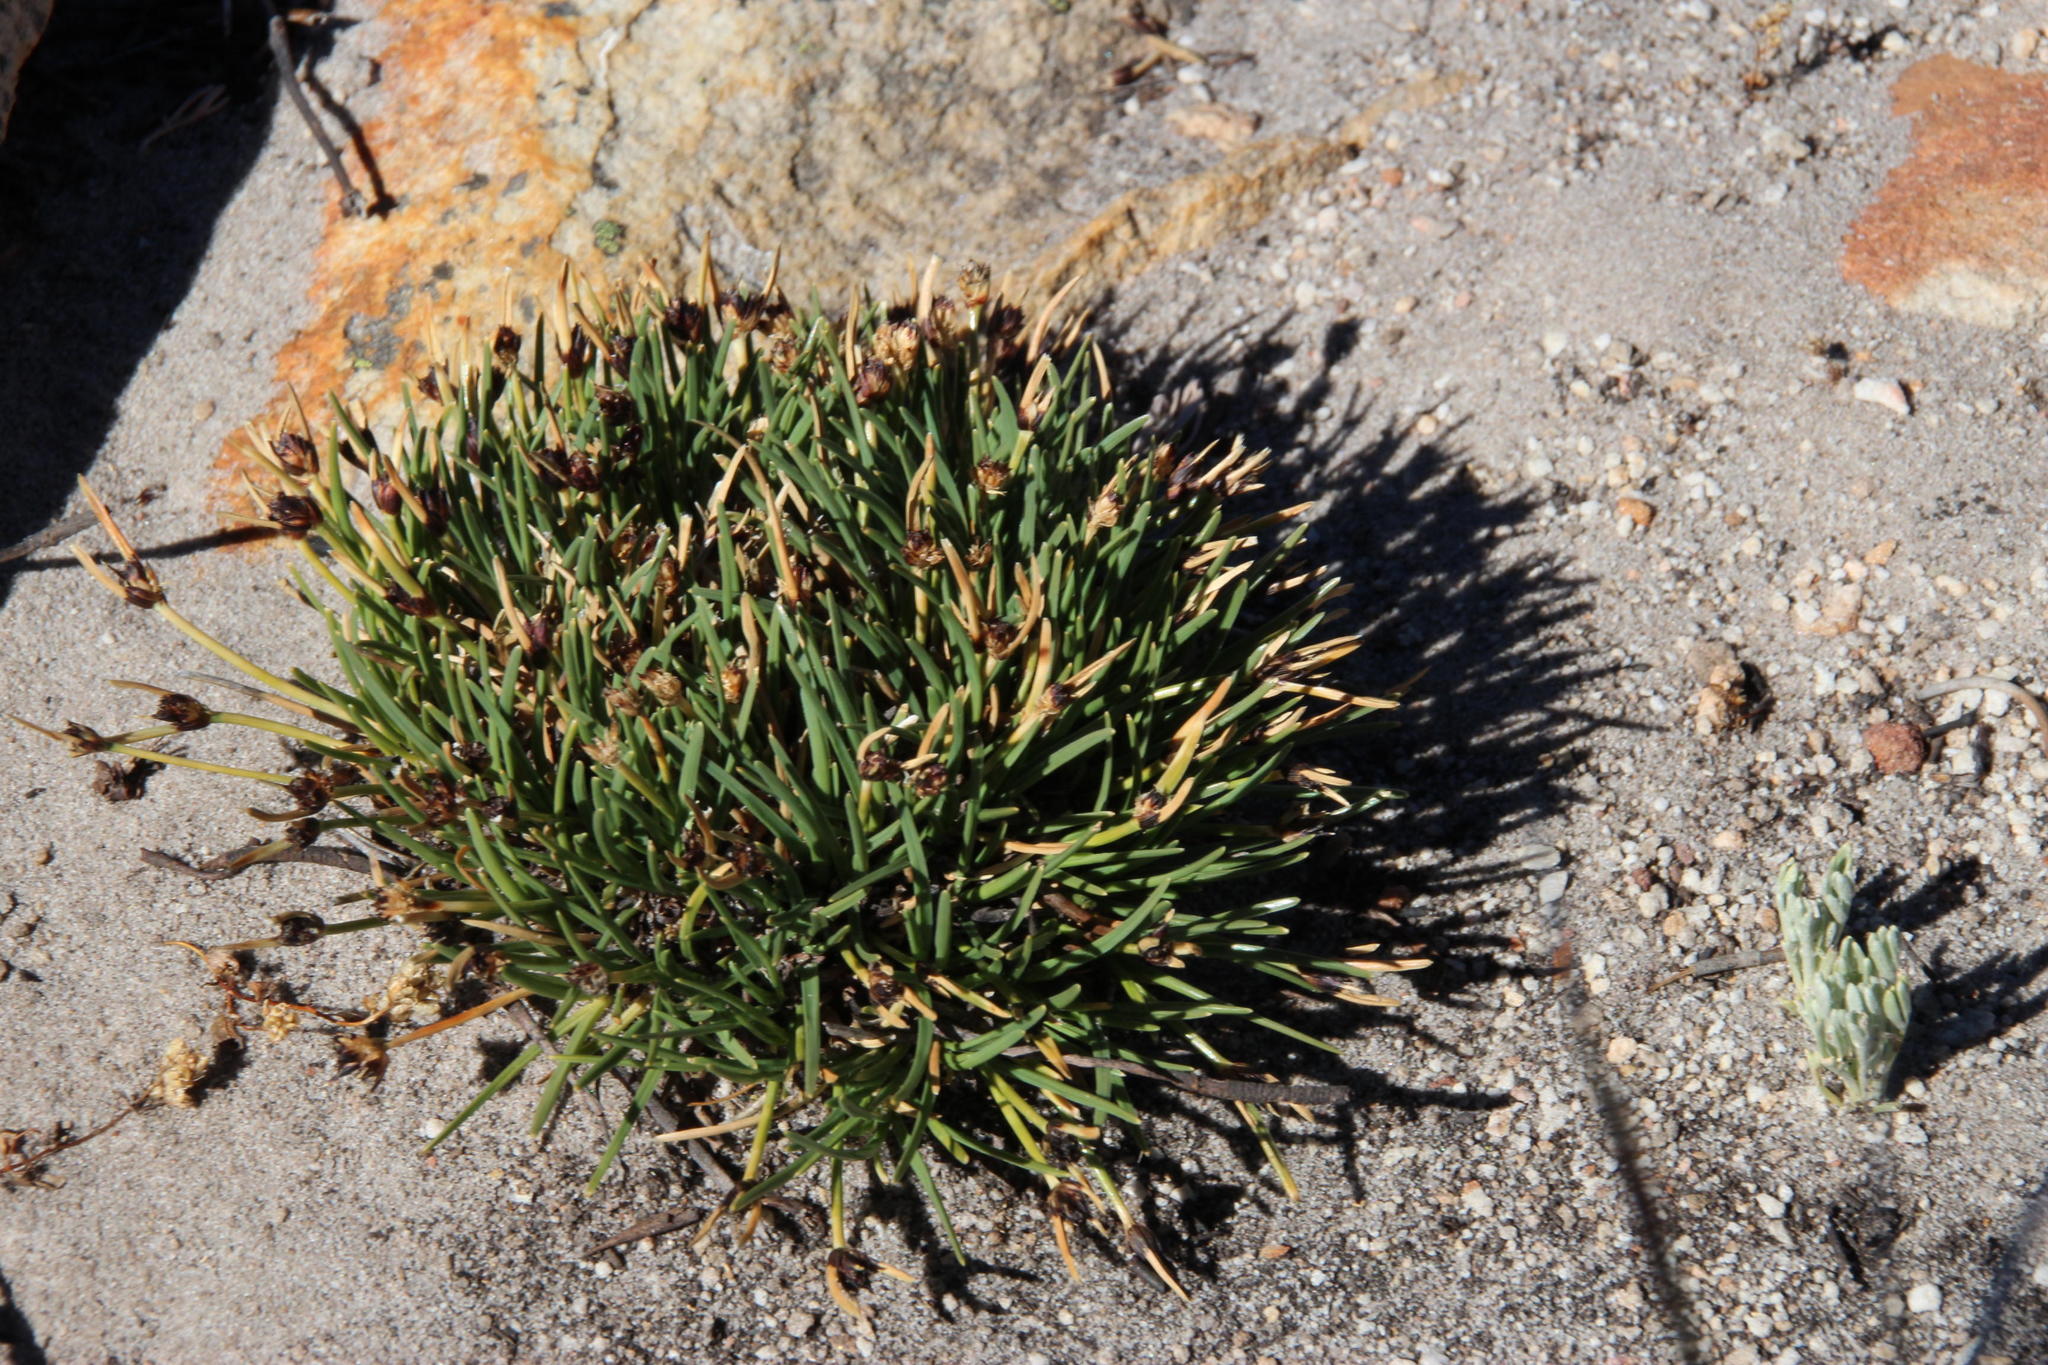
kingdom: Plantae
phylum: Tracheophyta
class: Liliopsida
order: Poales
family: Cyperaceae
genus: Ficinia
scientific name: Ficinia montana
